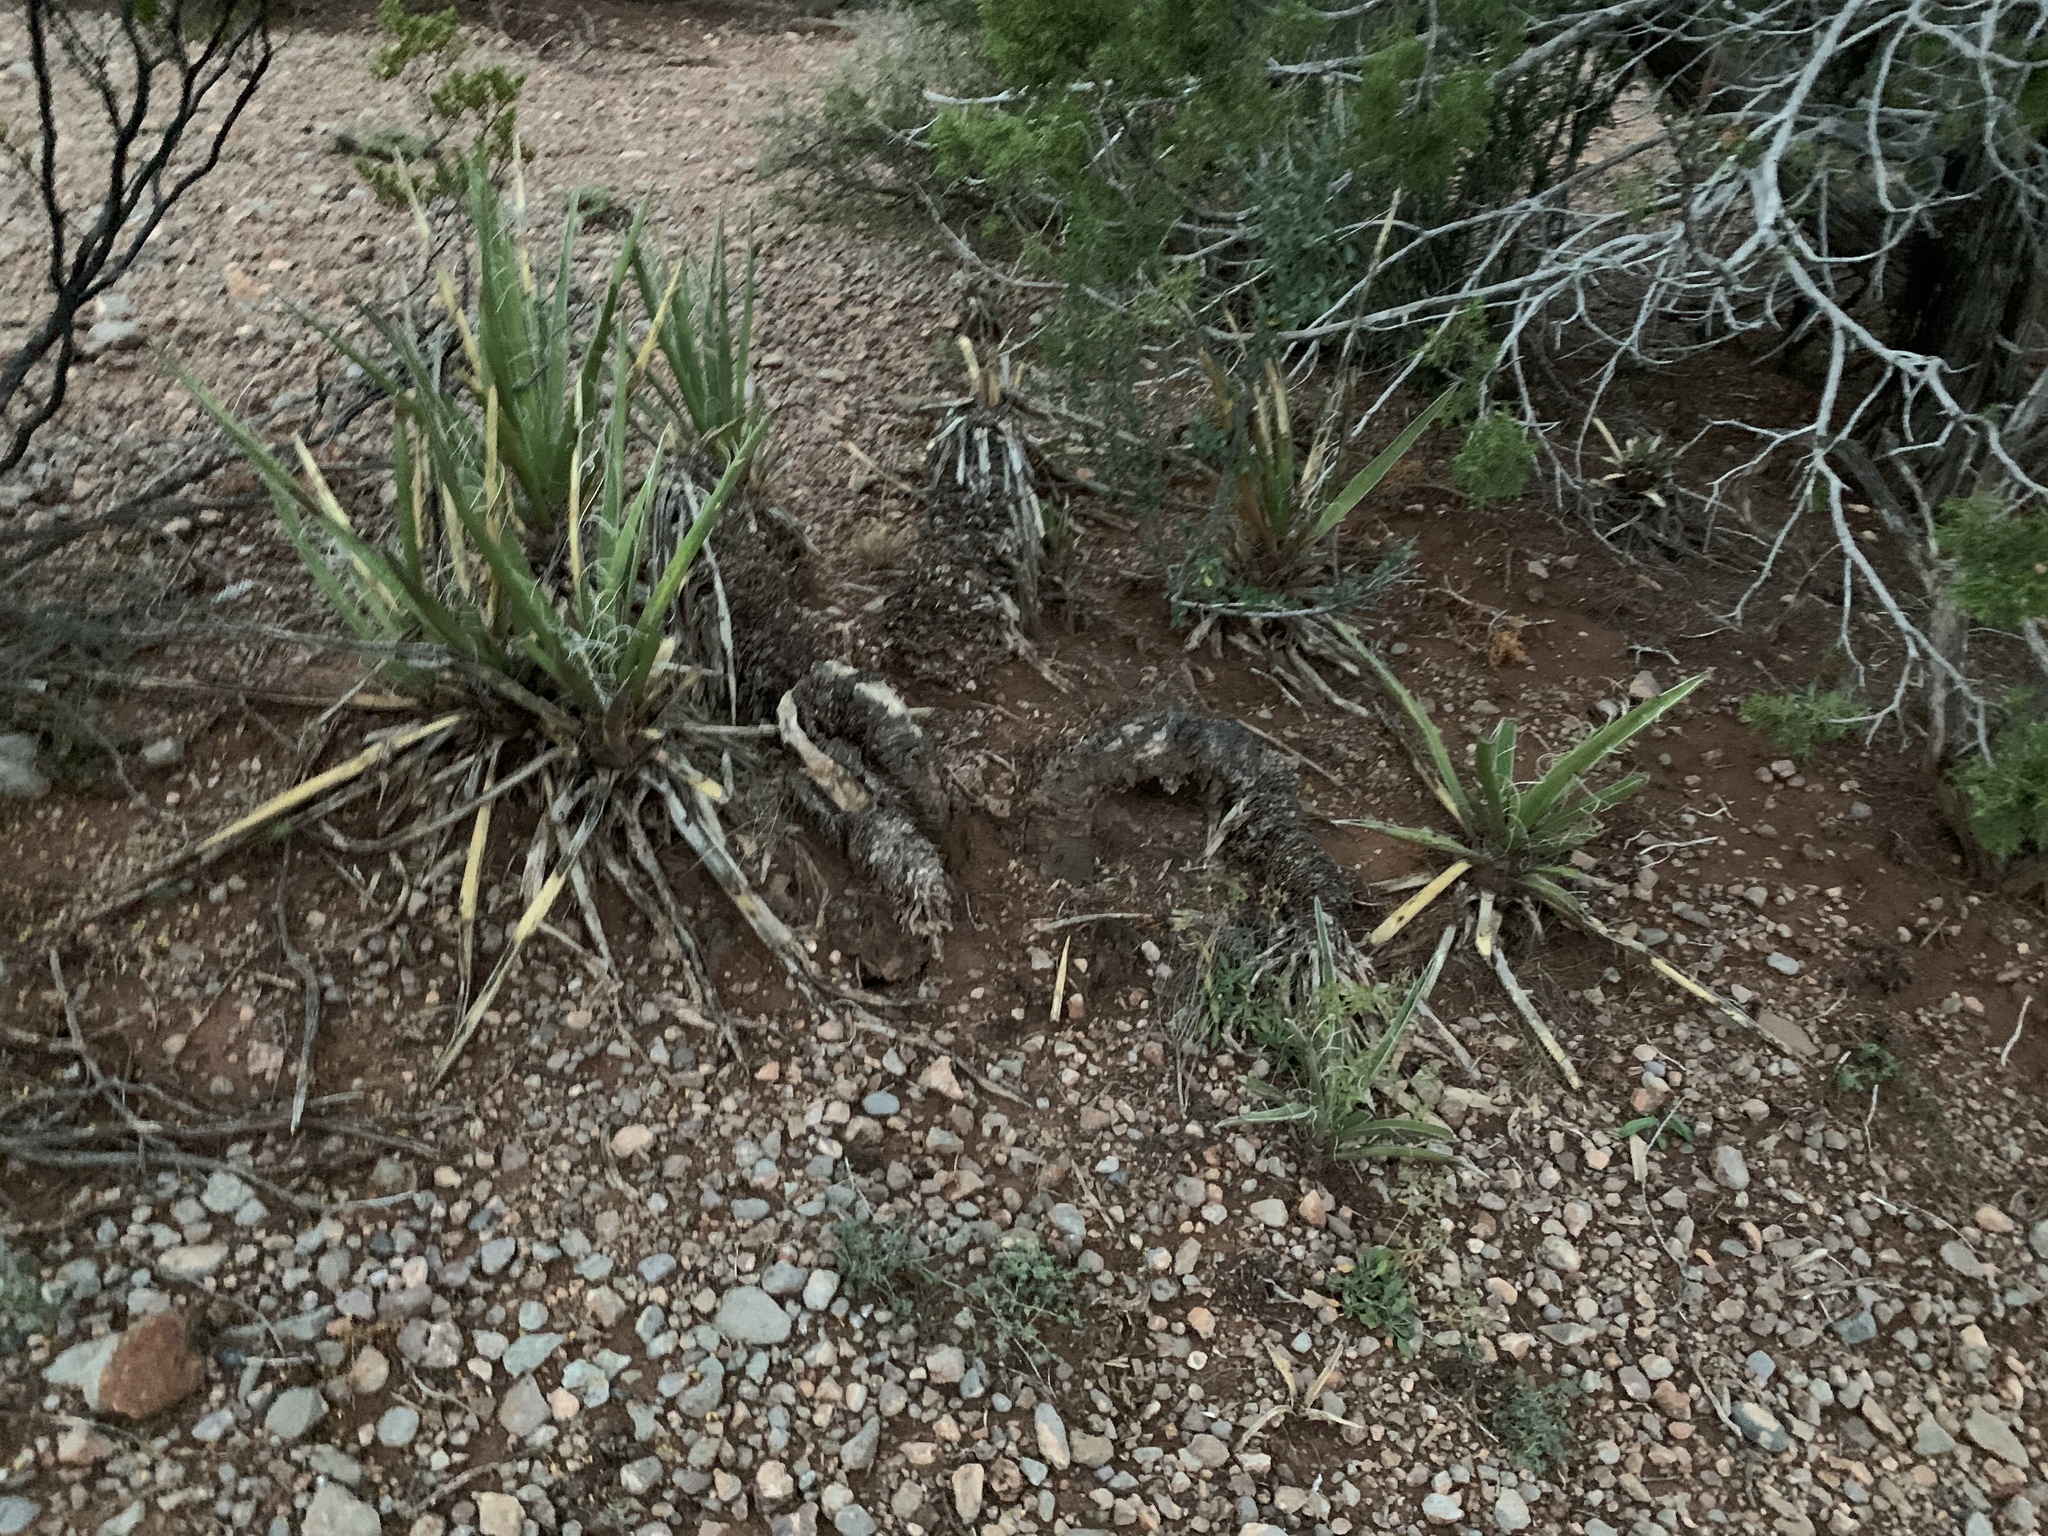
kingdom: Plantae
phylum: Tracheophyta
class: Liliopsida
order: Asparagales
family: Asparagaceae
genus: Yucca
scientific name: Yucca baccata
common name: Banana yucca
